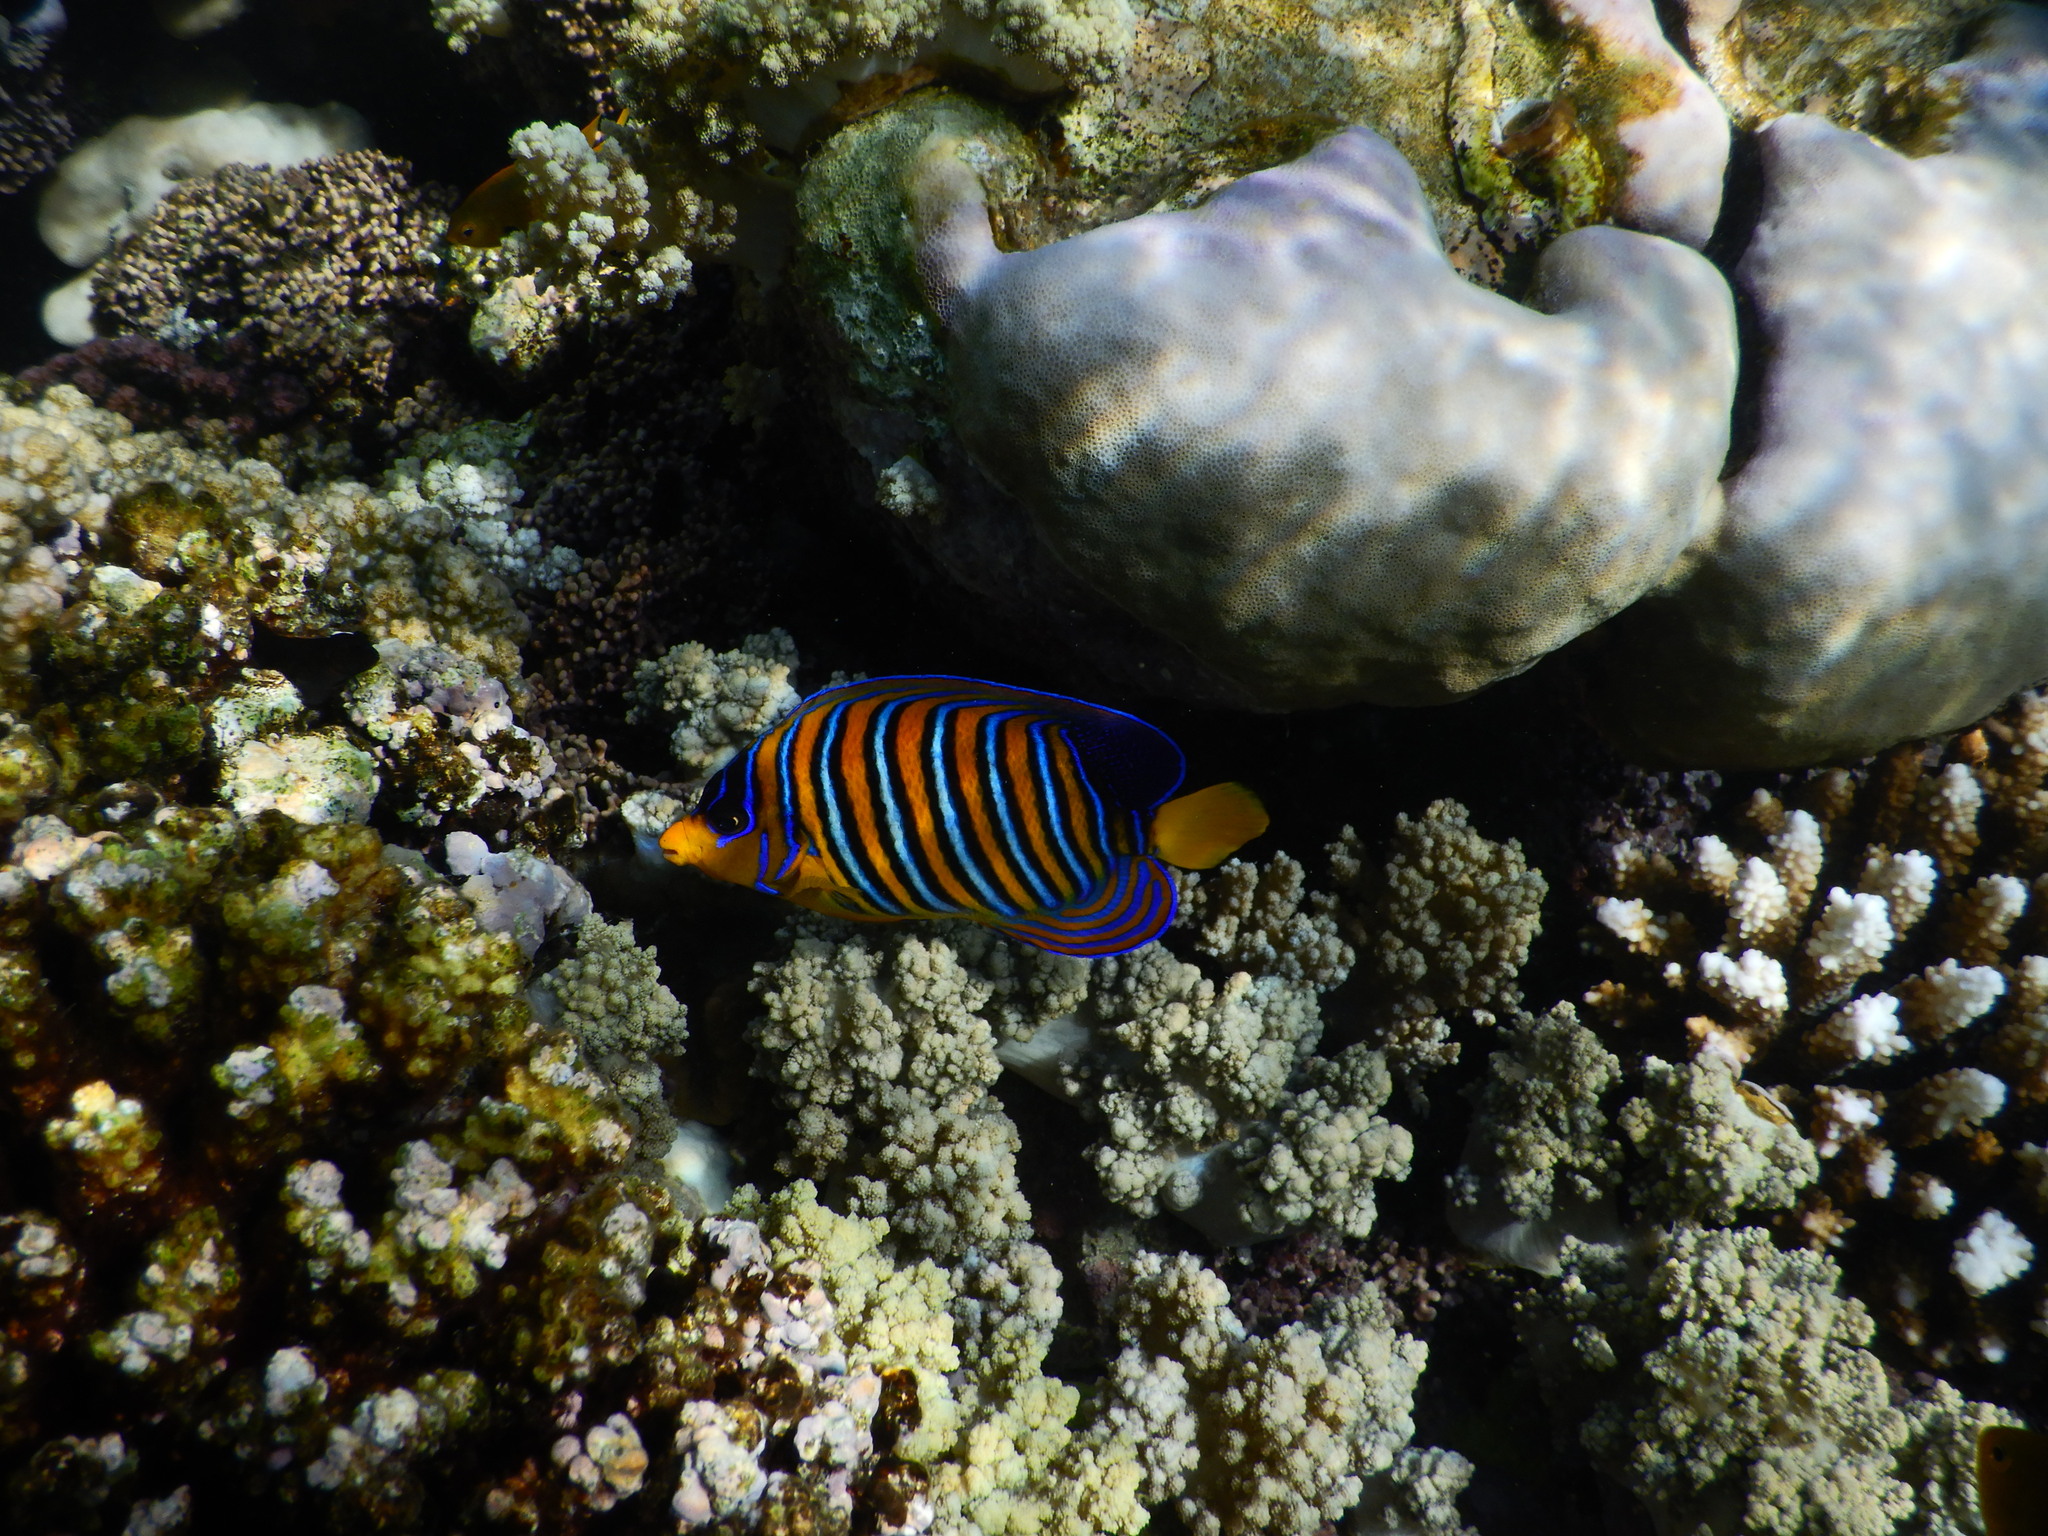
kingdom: Animalia
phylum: Chordata
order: Perciformes
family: Pomacanthidae
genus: Pygoplites
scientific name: Pygoplites diacanthus
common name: Regal angelfish
